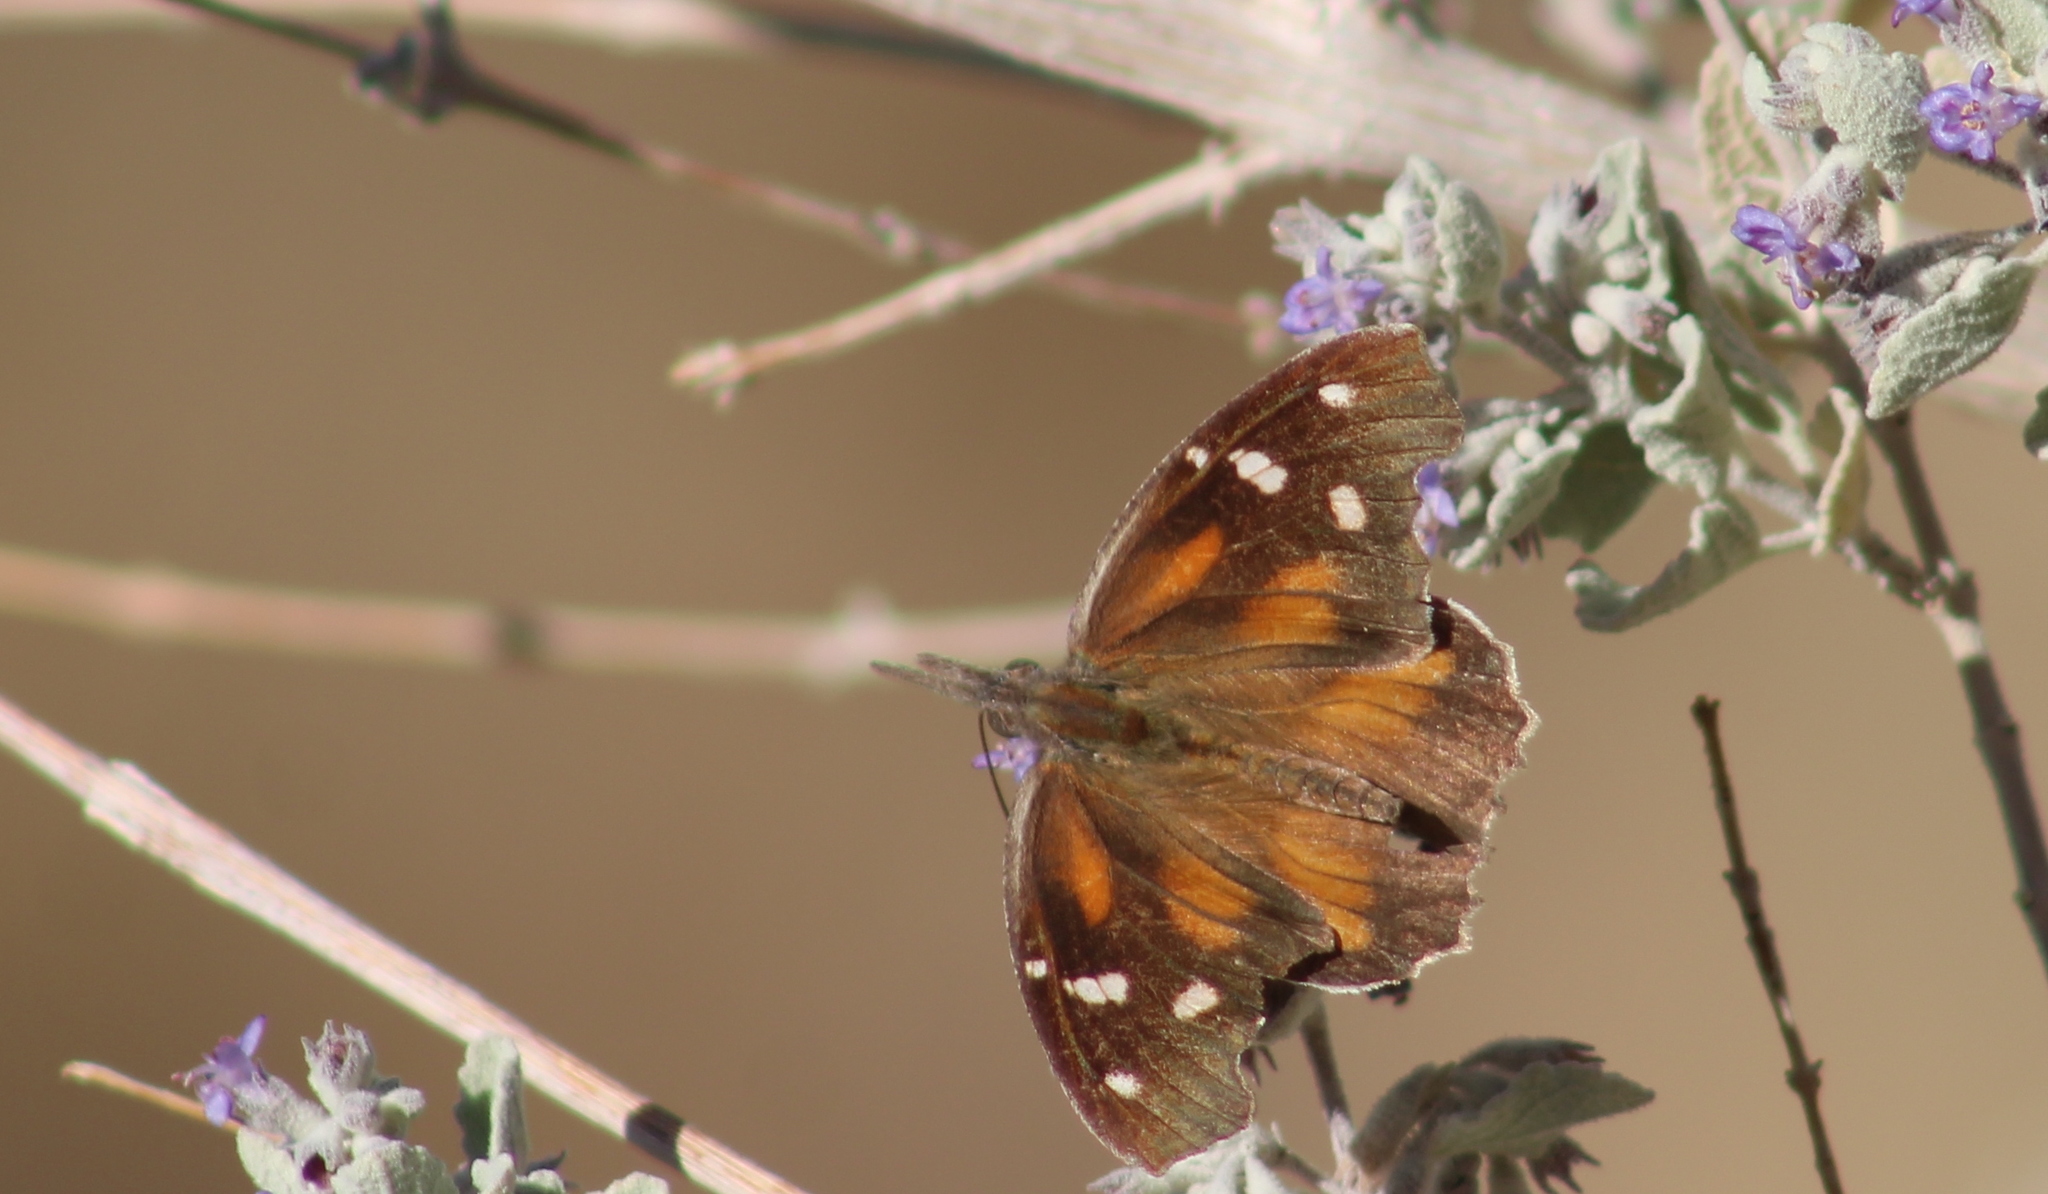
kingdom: Animalia
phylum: Arthropoda
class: Insecta
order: Lepidoptera
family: Nymphalidae
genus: Libytheana
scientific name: Libytheana carinenta
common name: American snout
